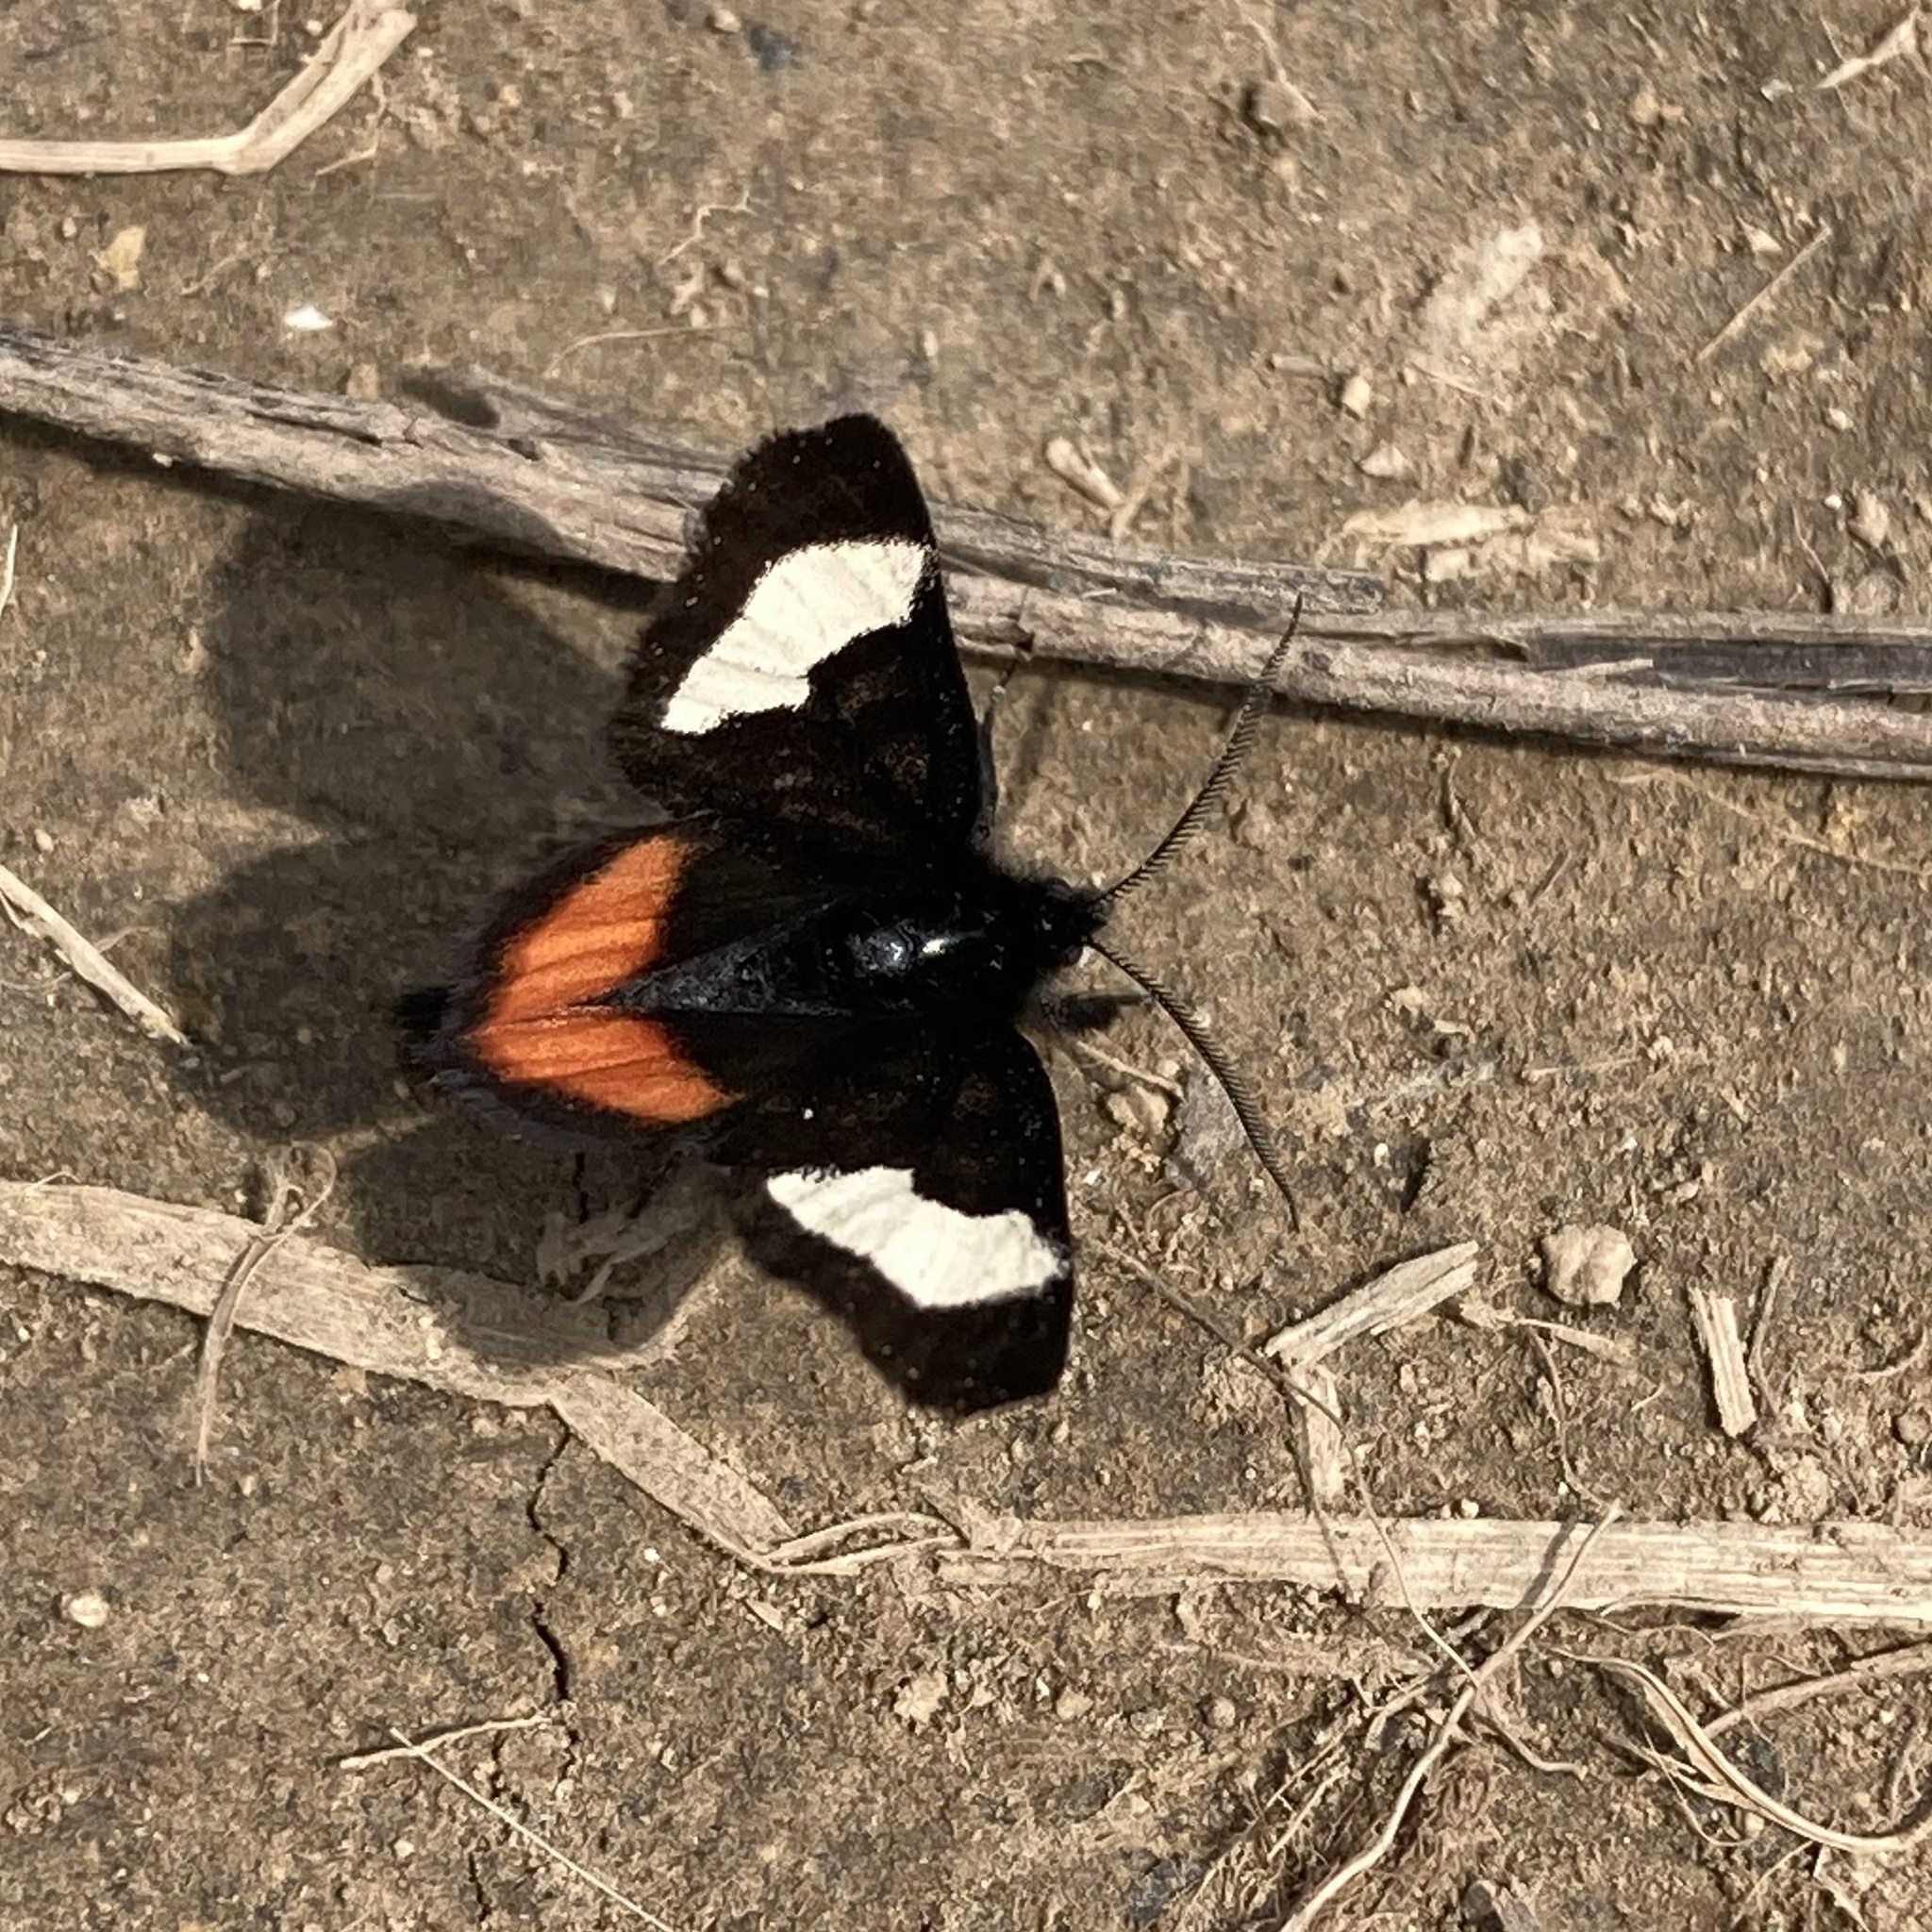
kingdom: Animalia
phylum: Arthropoda
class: Insecta
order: Lepidoptera
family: Noctuidae
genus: Psychomorpha
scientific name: Psychomorpha epimenis
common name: Grapevine epimenis moth
